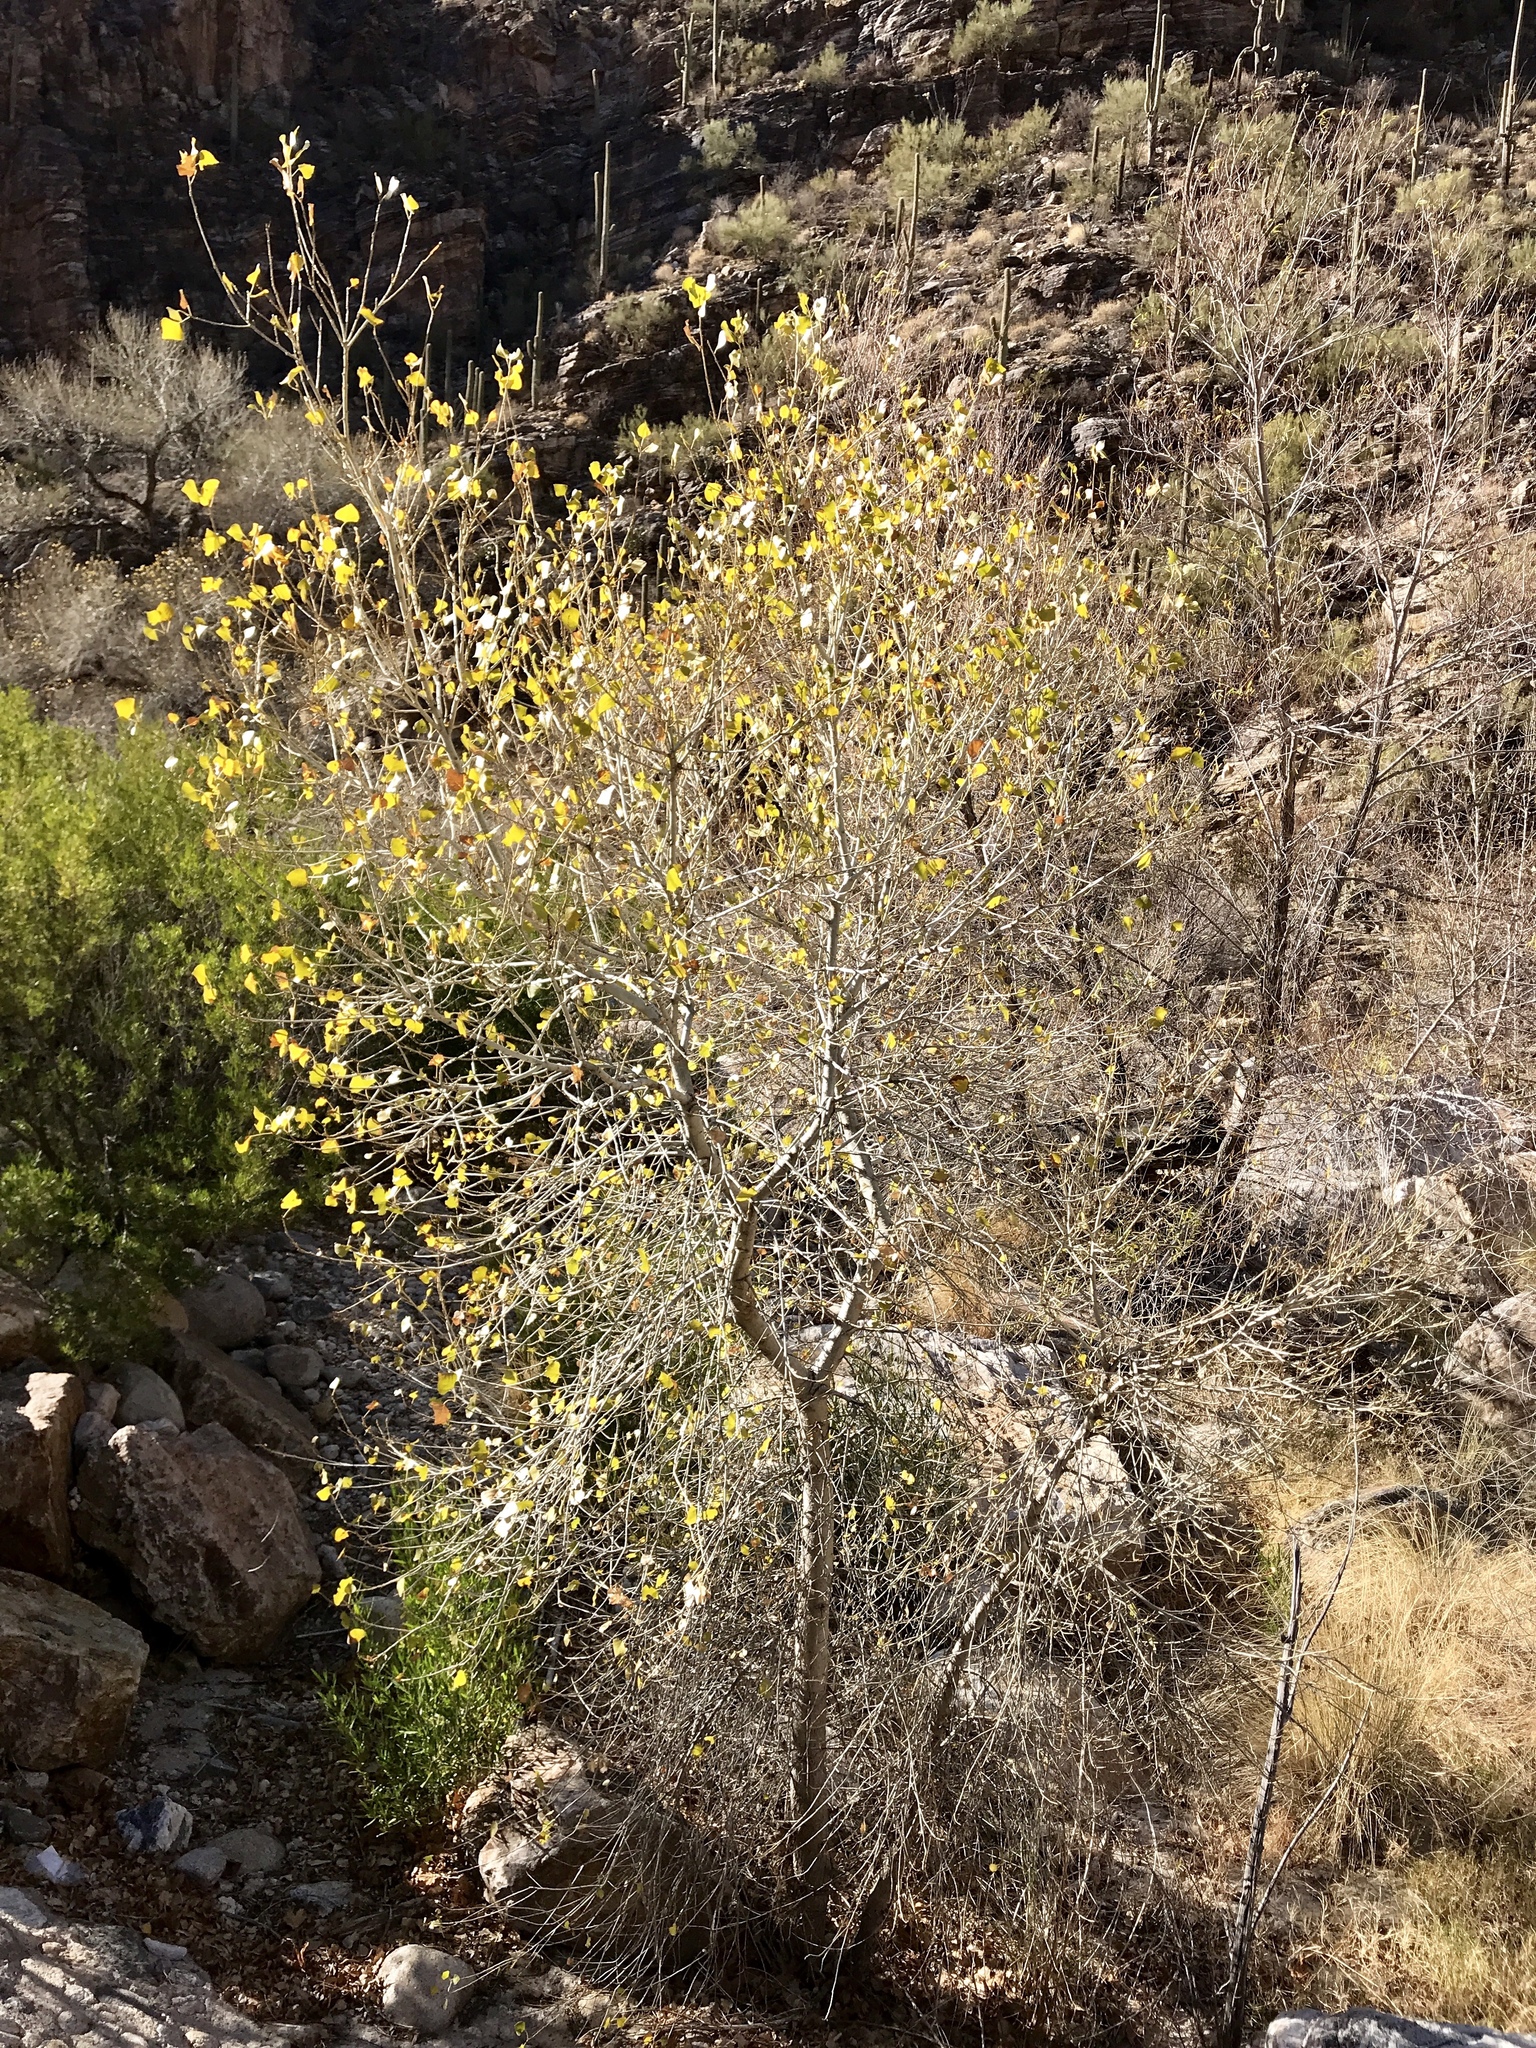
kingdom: Plantae
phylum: Tracheophyta
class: Magnoliopsida
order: Malpighiales
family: Salicaceae
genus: Populus
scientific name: Populus fremontii
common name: Fremont's cottonwood
